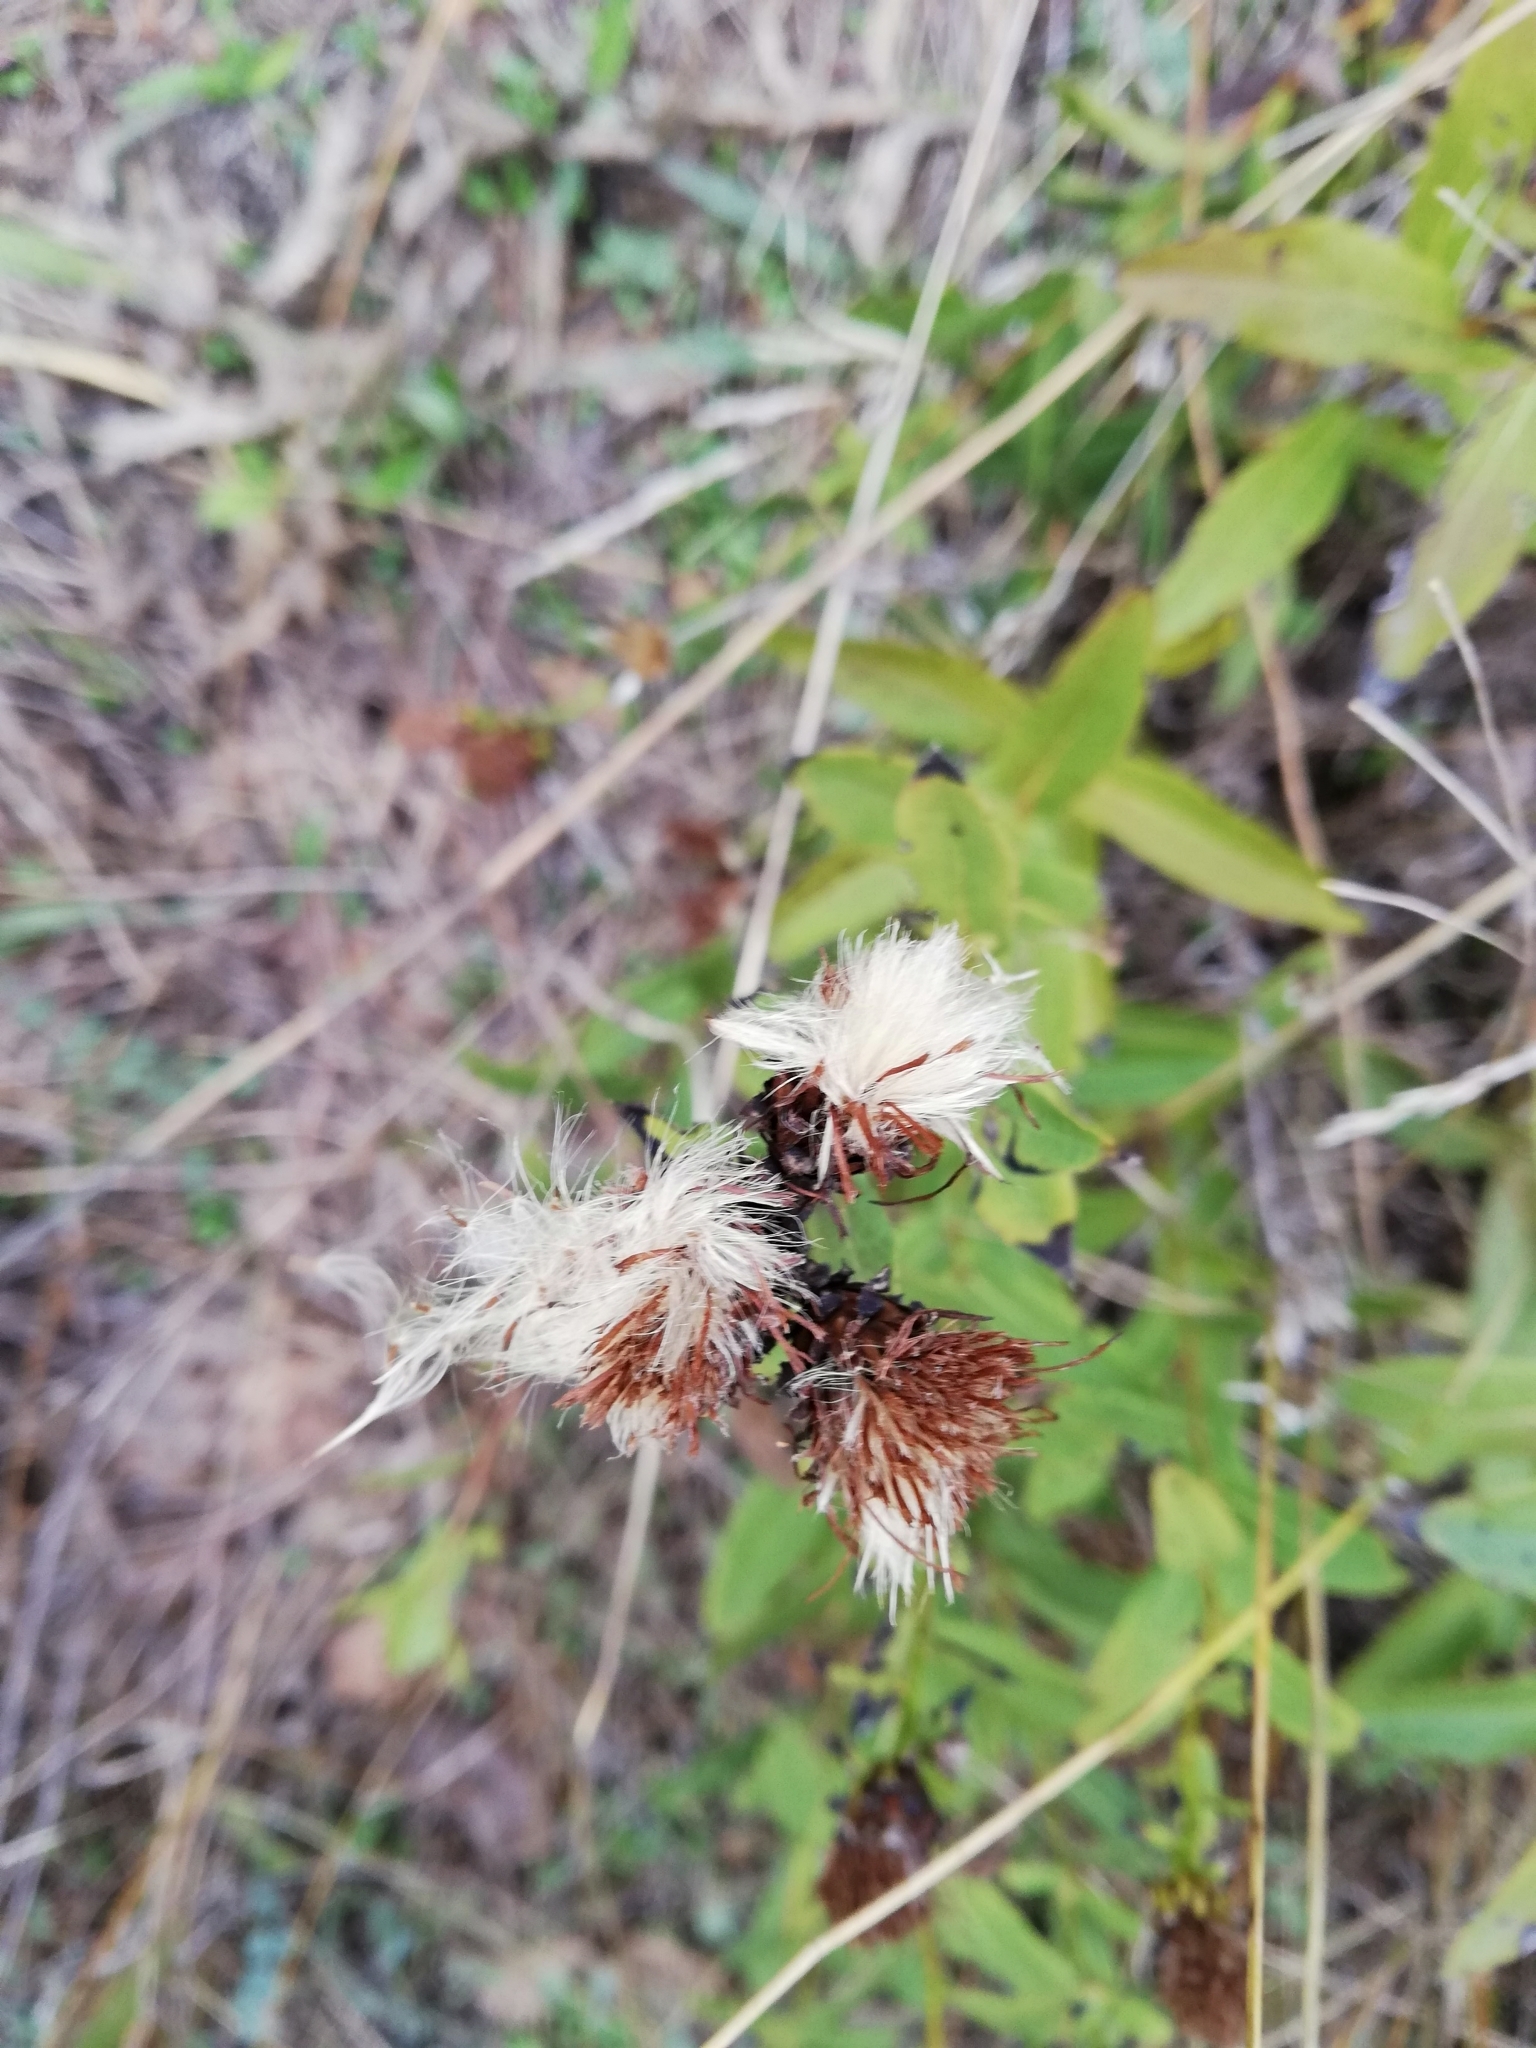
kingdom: Plantae
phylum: Tracheophyta
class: Magnoliopsida
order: Asterales
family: Asteraceae
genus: Pentanema
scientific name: Pentanema asperum
